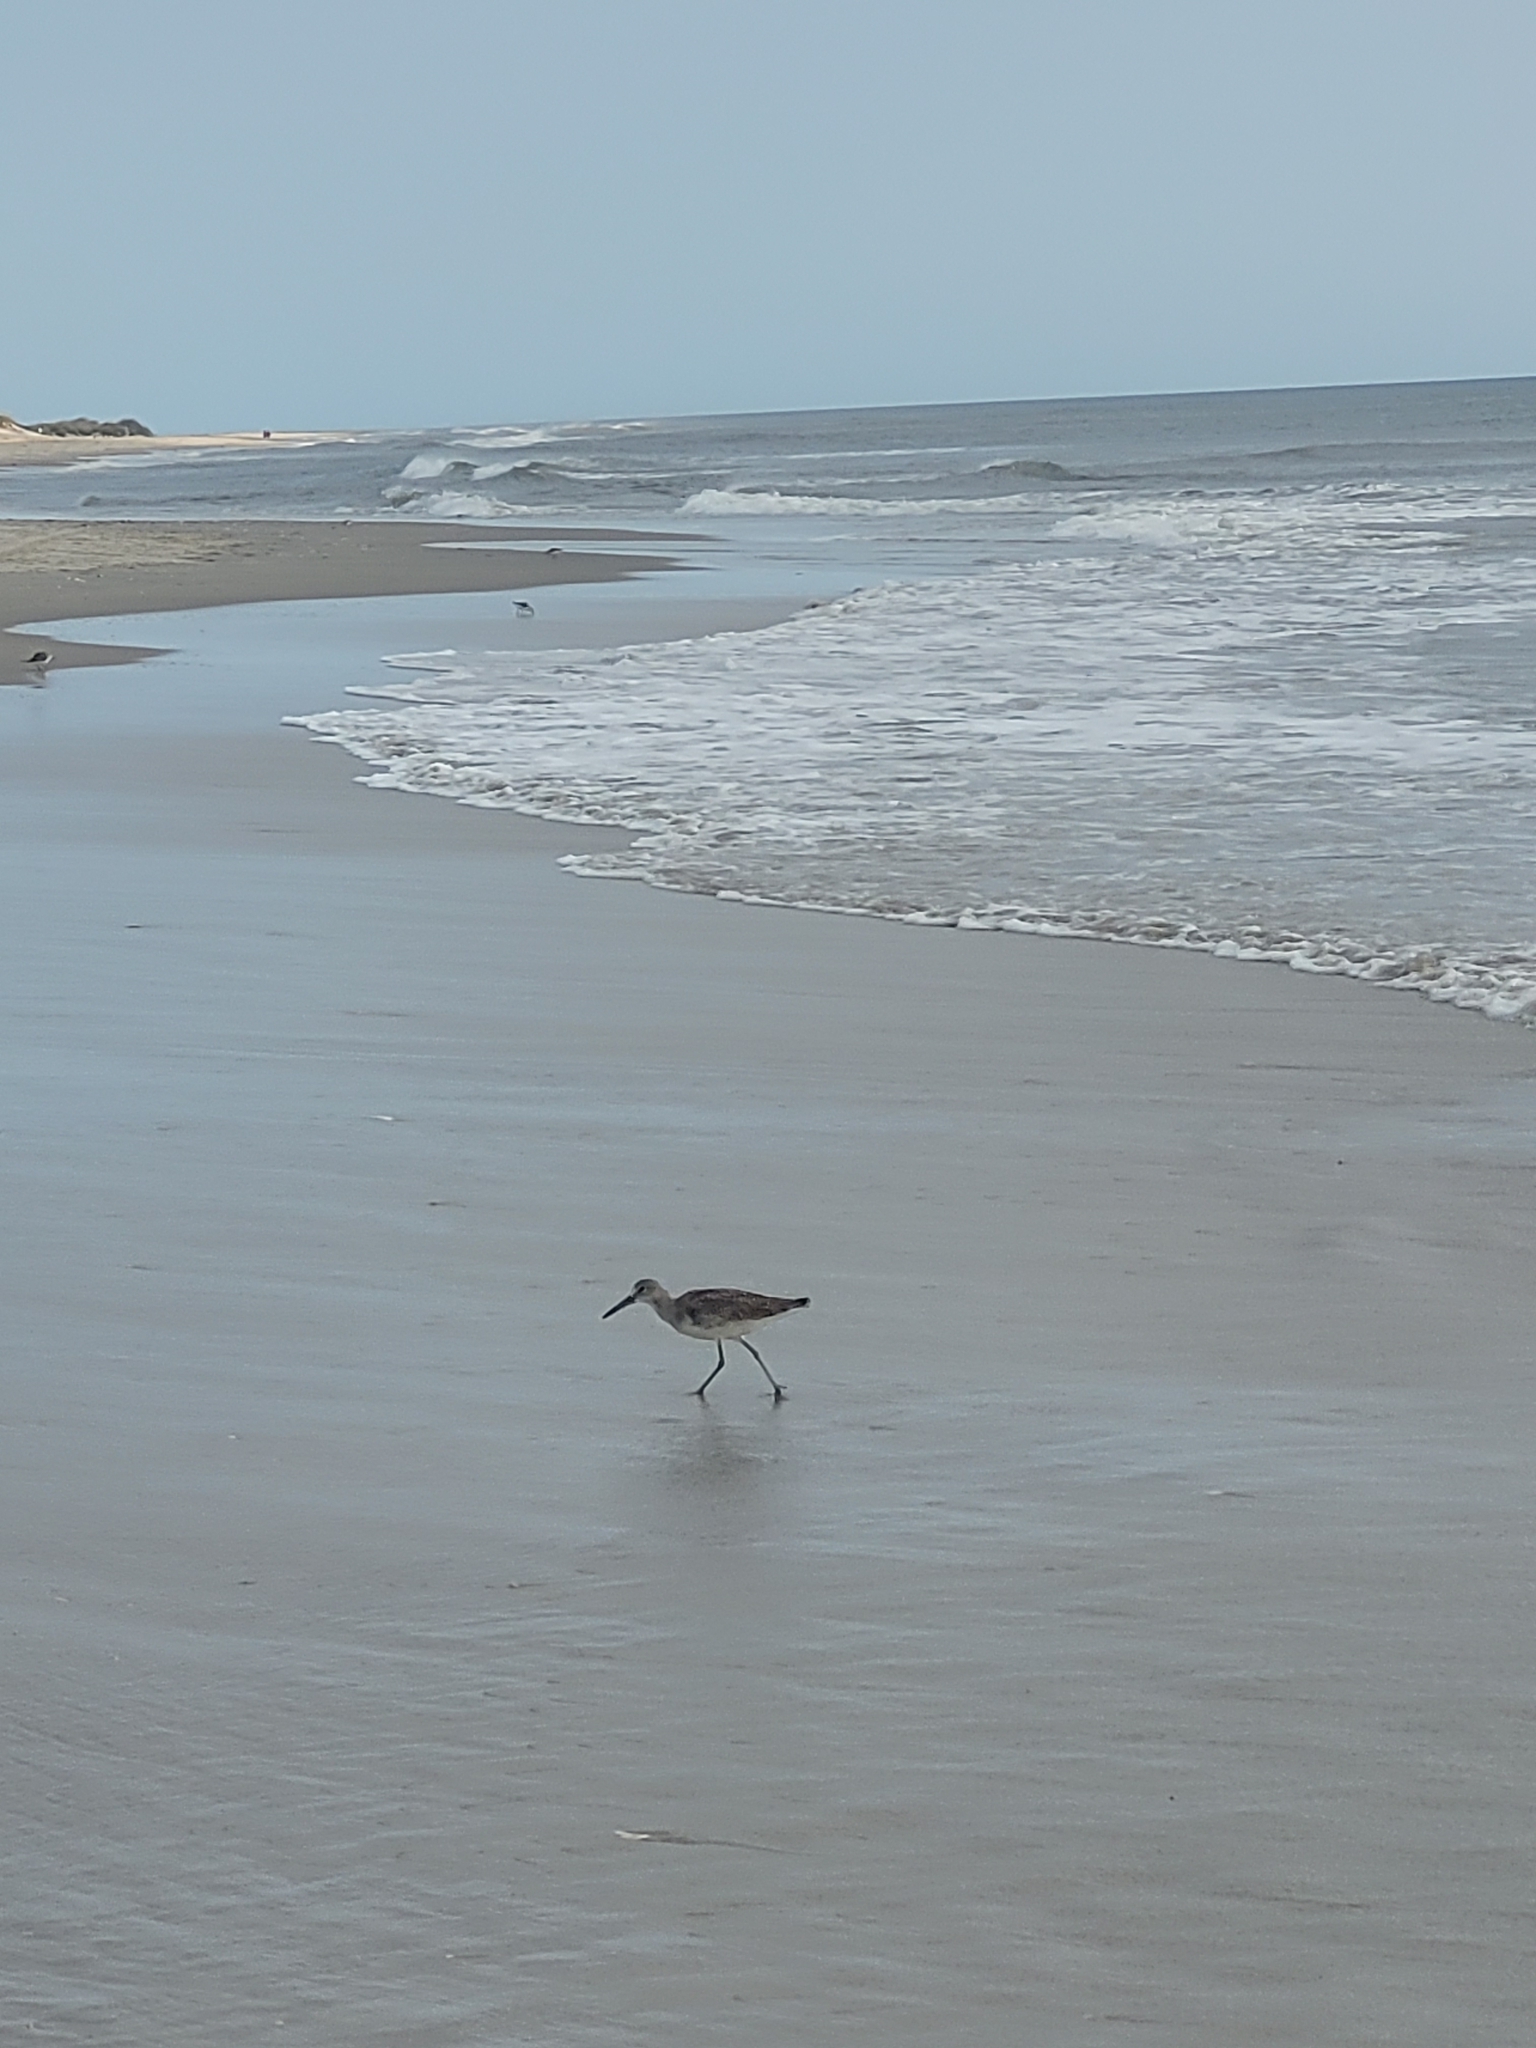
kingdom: Animalia
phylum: Chordata
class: Aves
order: Charadriiformes
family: Scolopacidae
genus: Tringa
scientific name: Tringa semipalmata
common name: Willet
